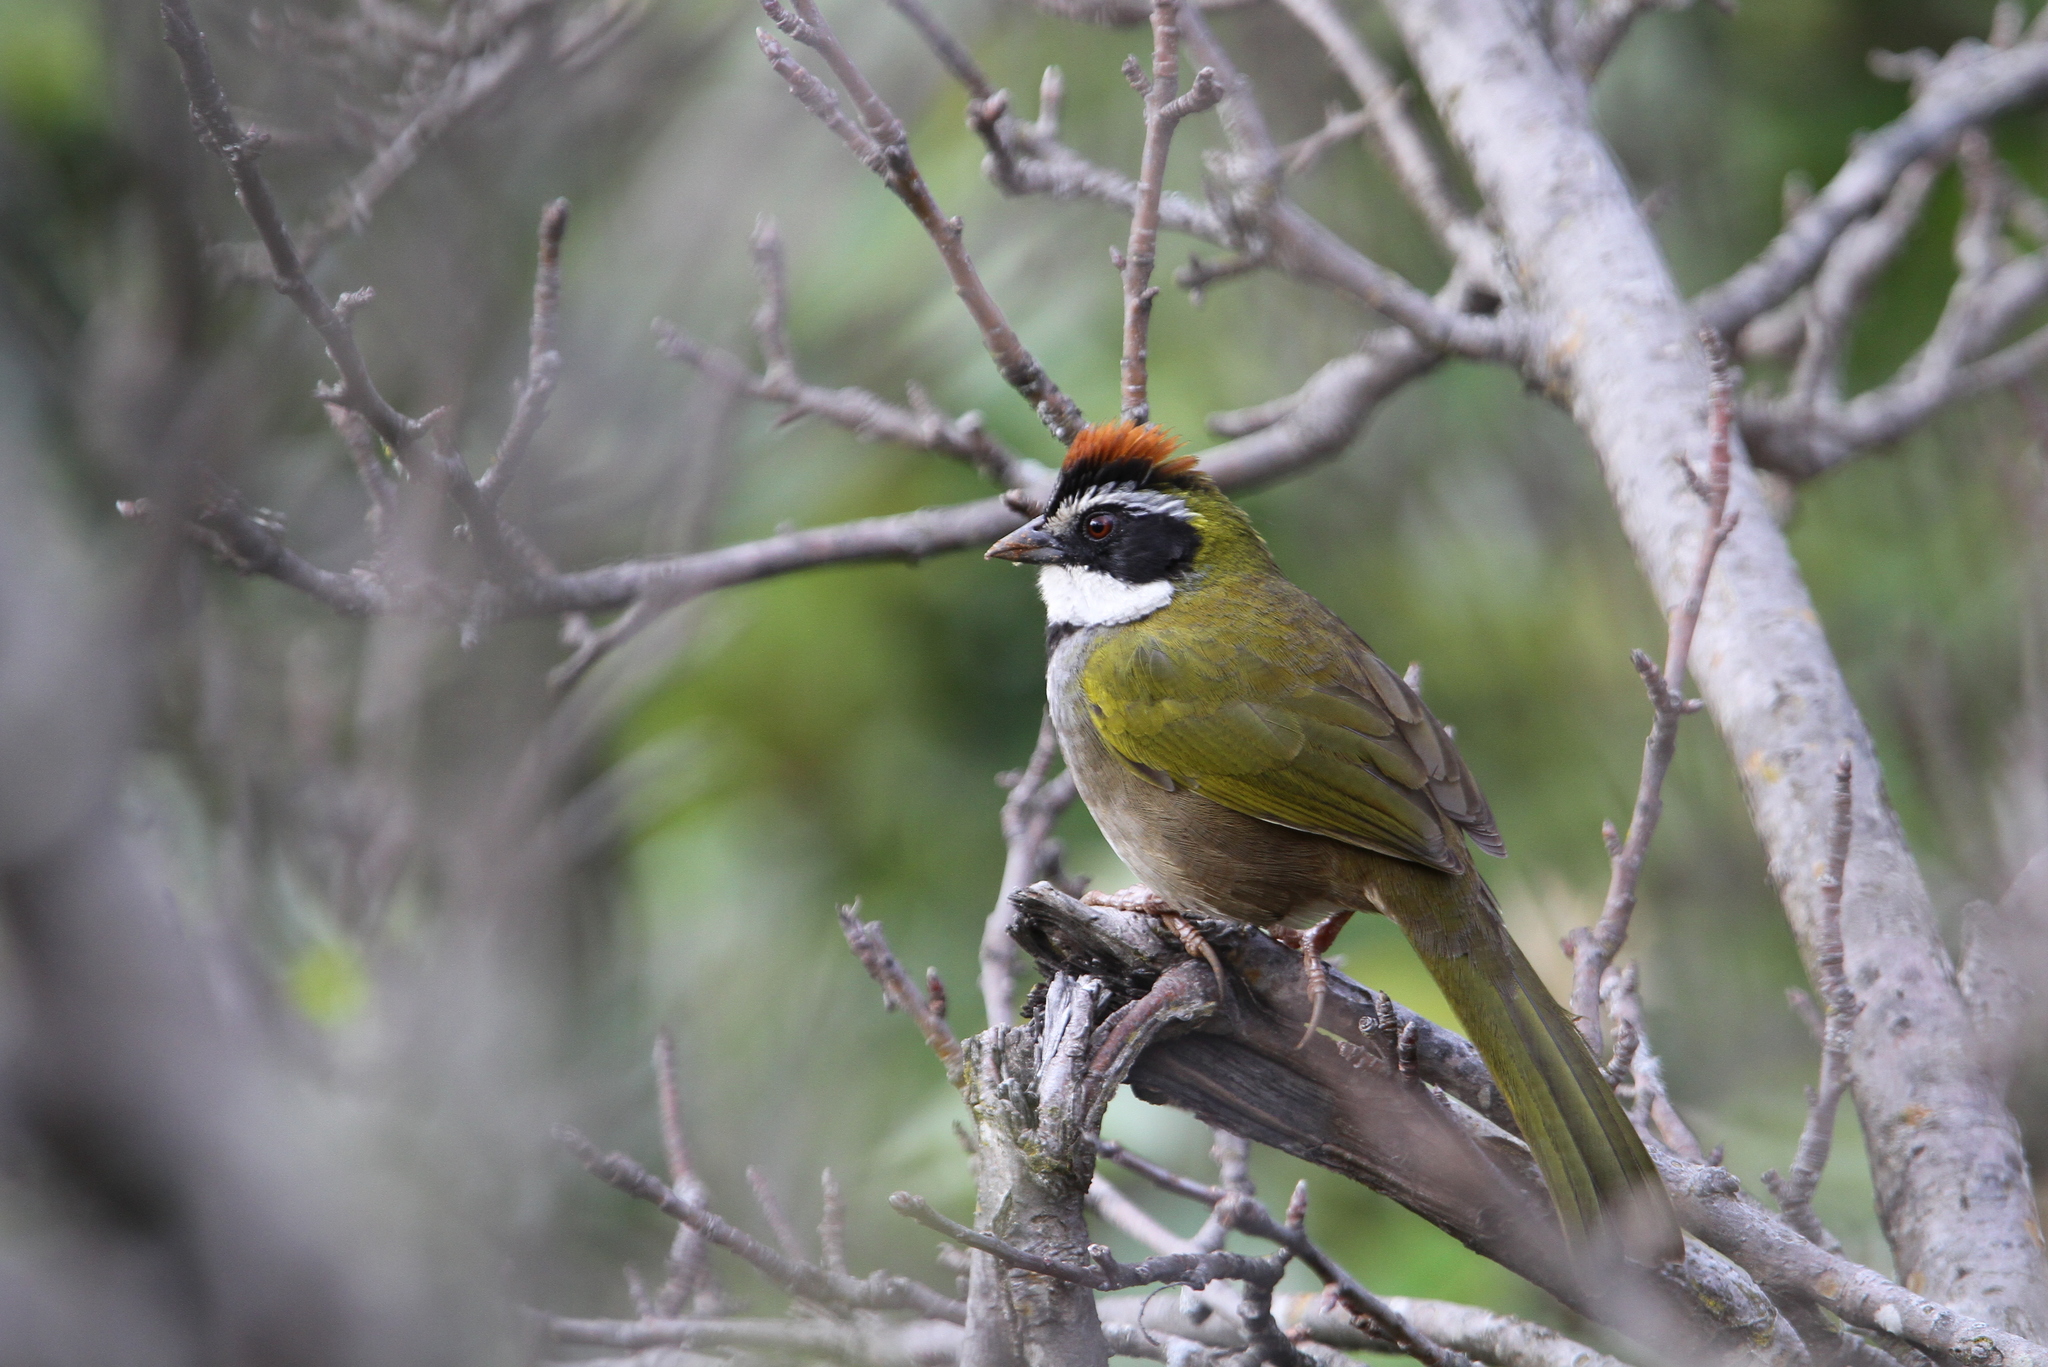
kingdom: Animalia
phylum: Chordata
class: Aves
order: Passeriformes
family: Passerellidae
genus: Pipilo
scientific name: Pipilo ocai
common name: Collared towhee
